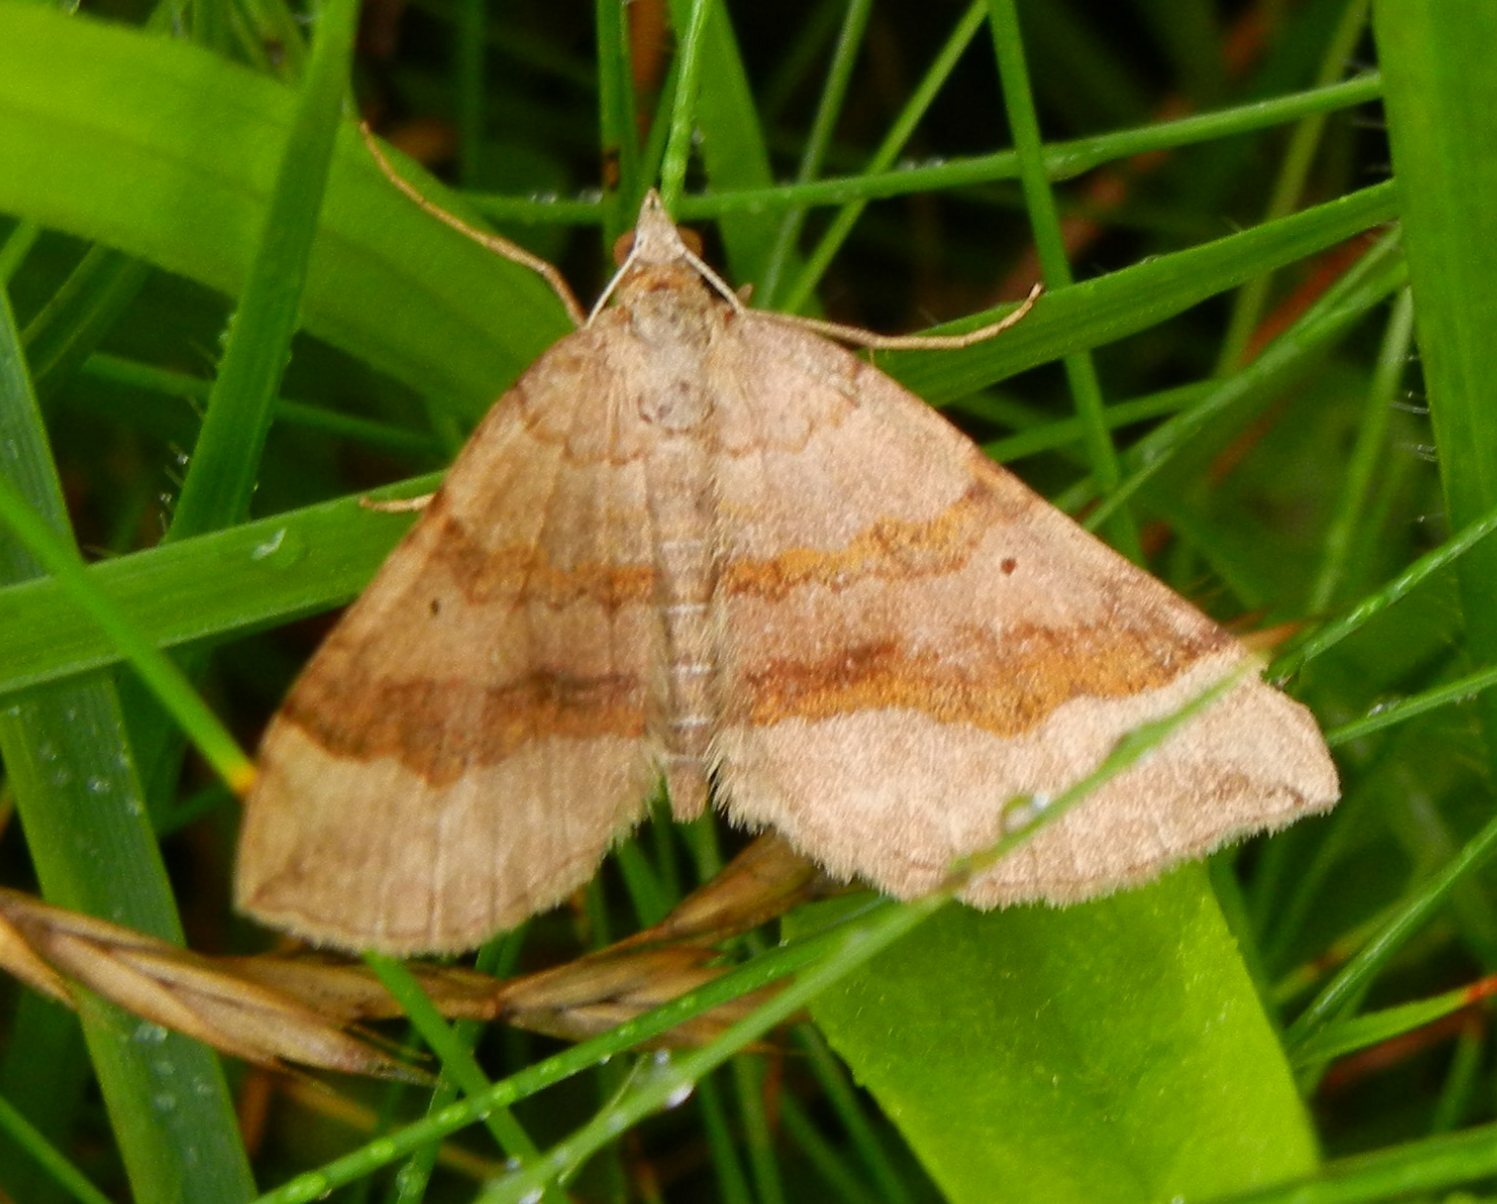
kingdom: Animalia
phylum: Arthropoda
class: Insecta
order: Lepidoptera
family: Geometridae
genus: Scotopteryx
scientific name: Scotopteryx chenopodiata
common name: Shaded broad-bar
